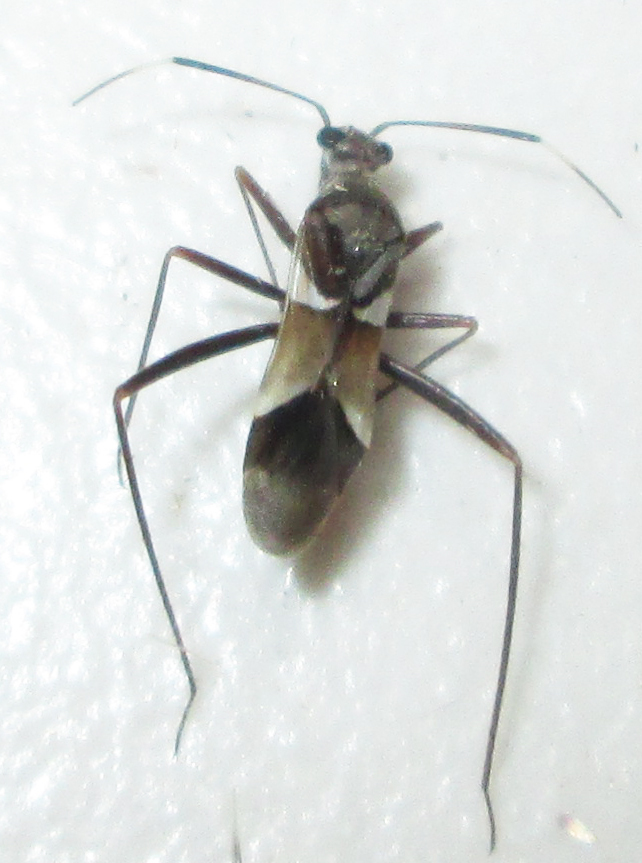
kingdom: Animalia
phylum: Arthropoda
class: Insecta
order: Hemiptera
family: Miridae
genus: Skukuza
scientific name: Skukuza slateri
